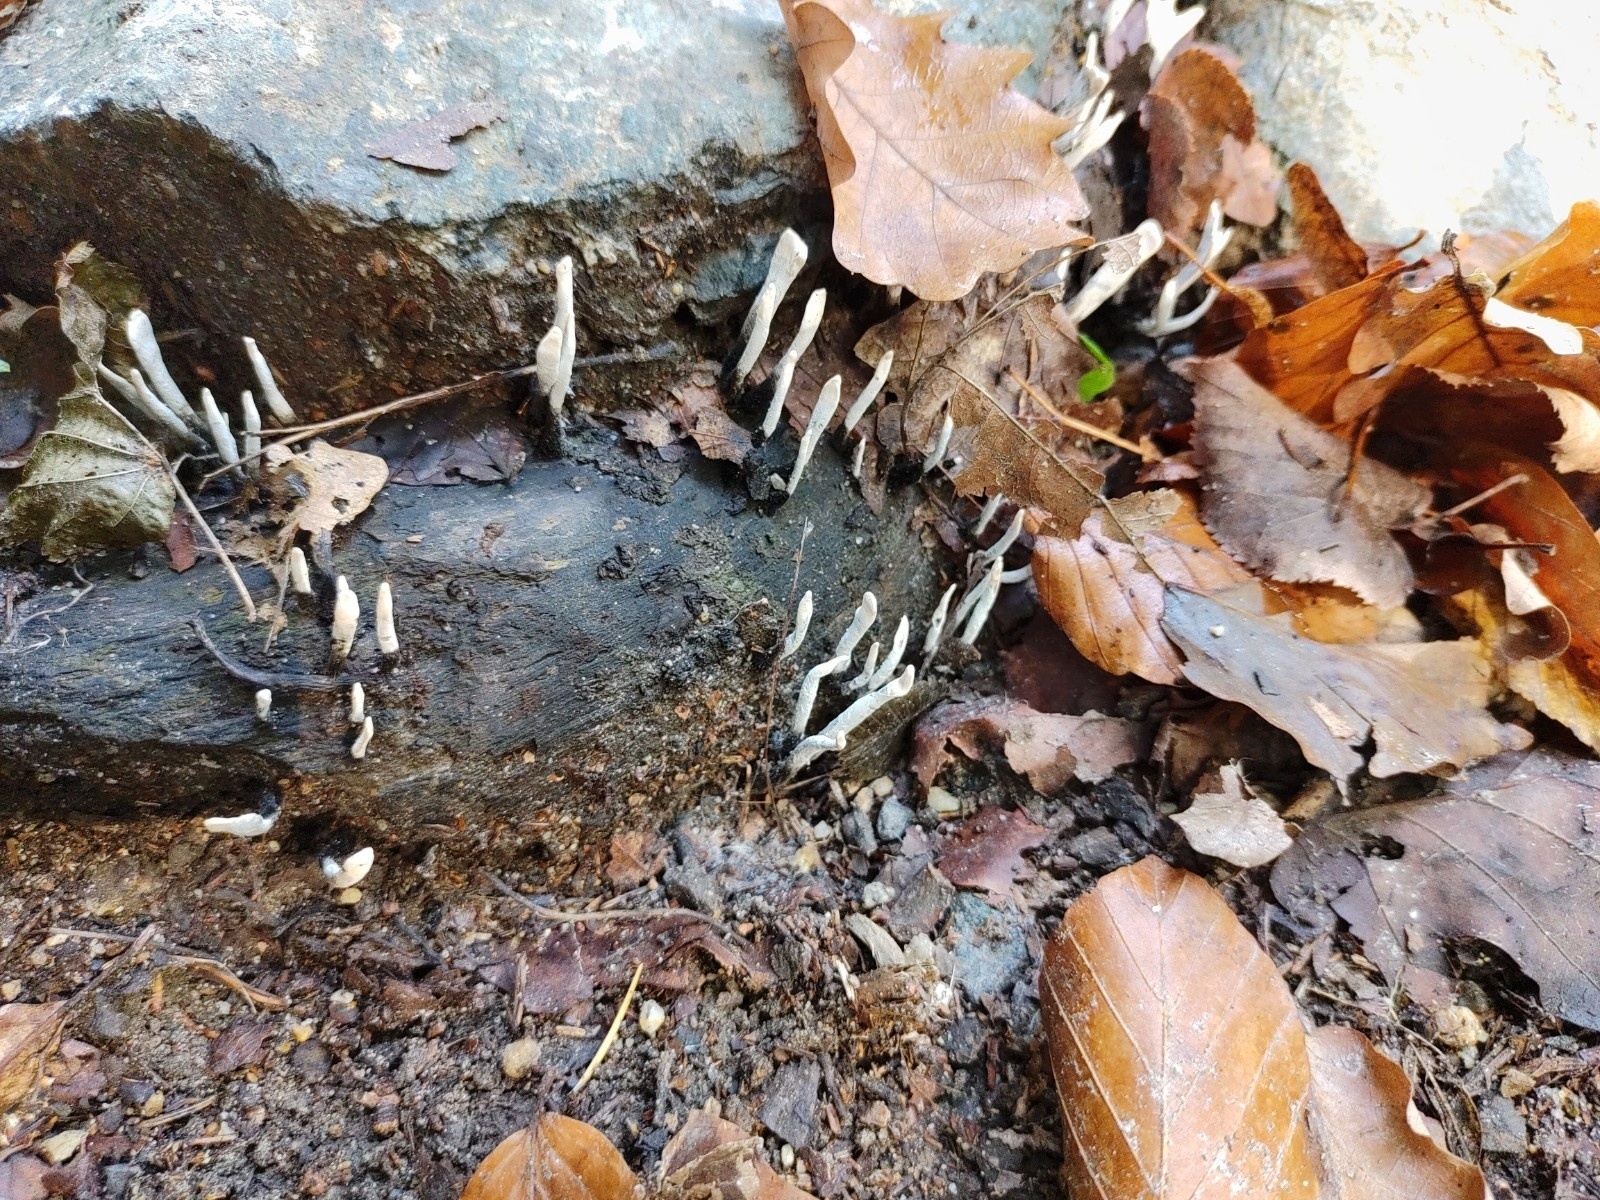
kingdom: Fungi
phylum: Ascomycota
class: Sordariomycetes
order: Xylariales
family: Xylariaceae
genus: Xylaria
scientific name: Xylaria hypoxylon
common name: Candle-snuff fungus
